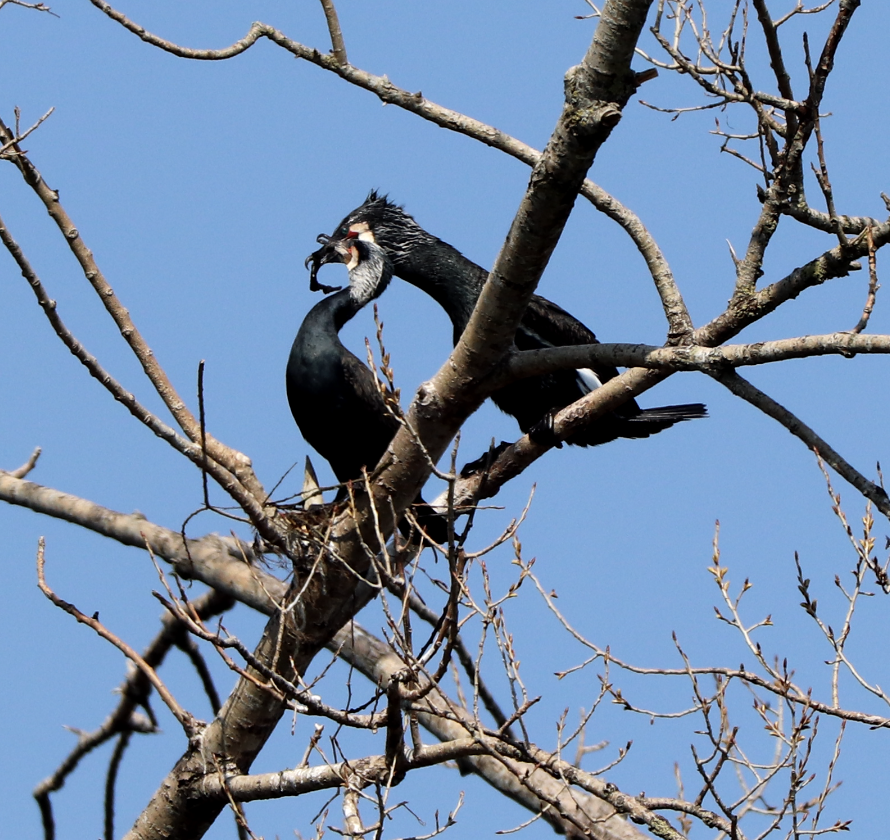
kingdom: Animalia
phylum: Chordata
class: Aves
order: Suliformes
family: Phalacrocoracidae
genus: Phalacrocorax
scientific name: Phalacrocorax carbo
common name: Great cormorant
